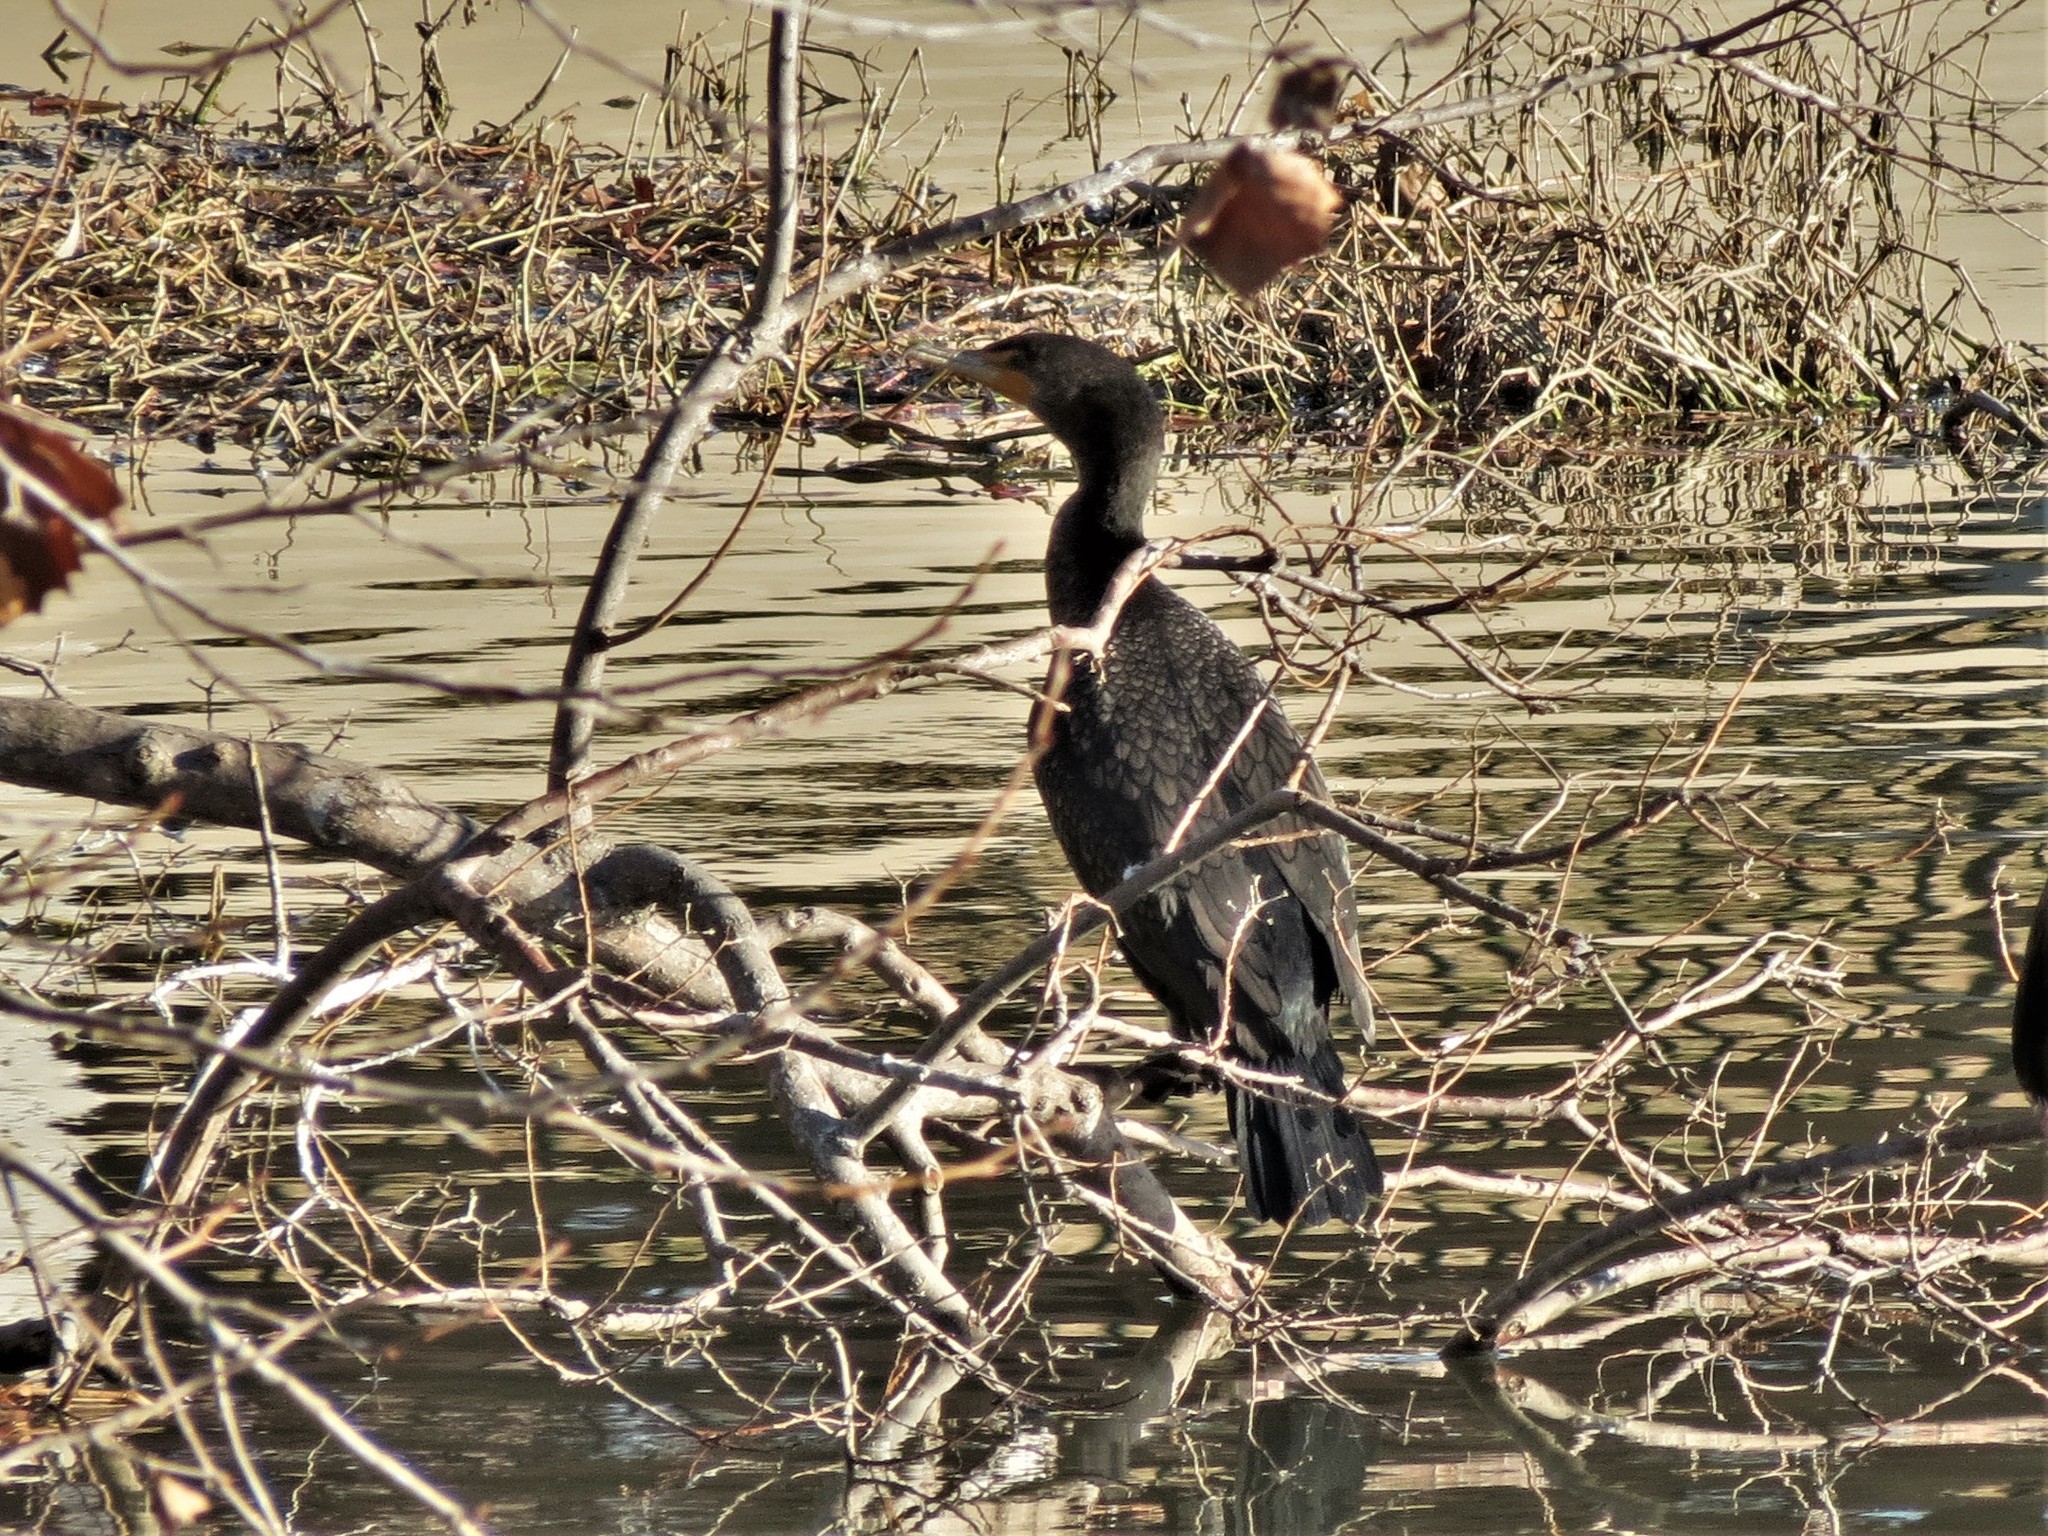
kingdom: Animalia
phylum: Chordata
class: Aves
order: Suliformes
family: Phalacrocoracidae
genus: Phalacrocorax
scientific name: Phalacrocorax auritus
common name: Double-crested cormorant
